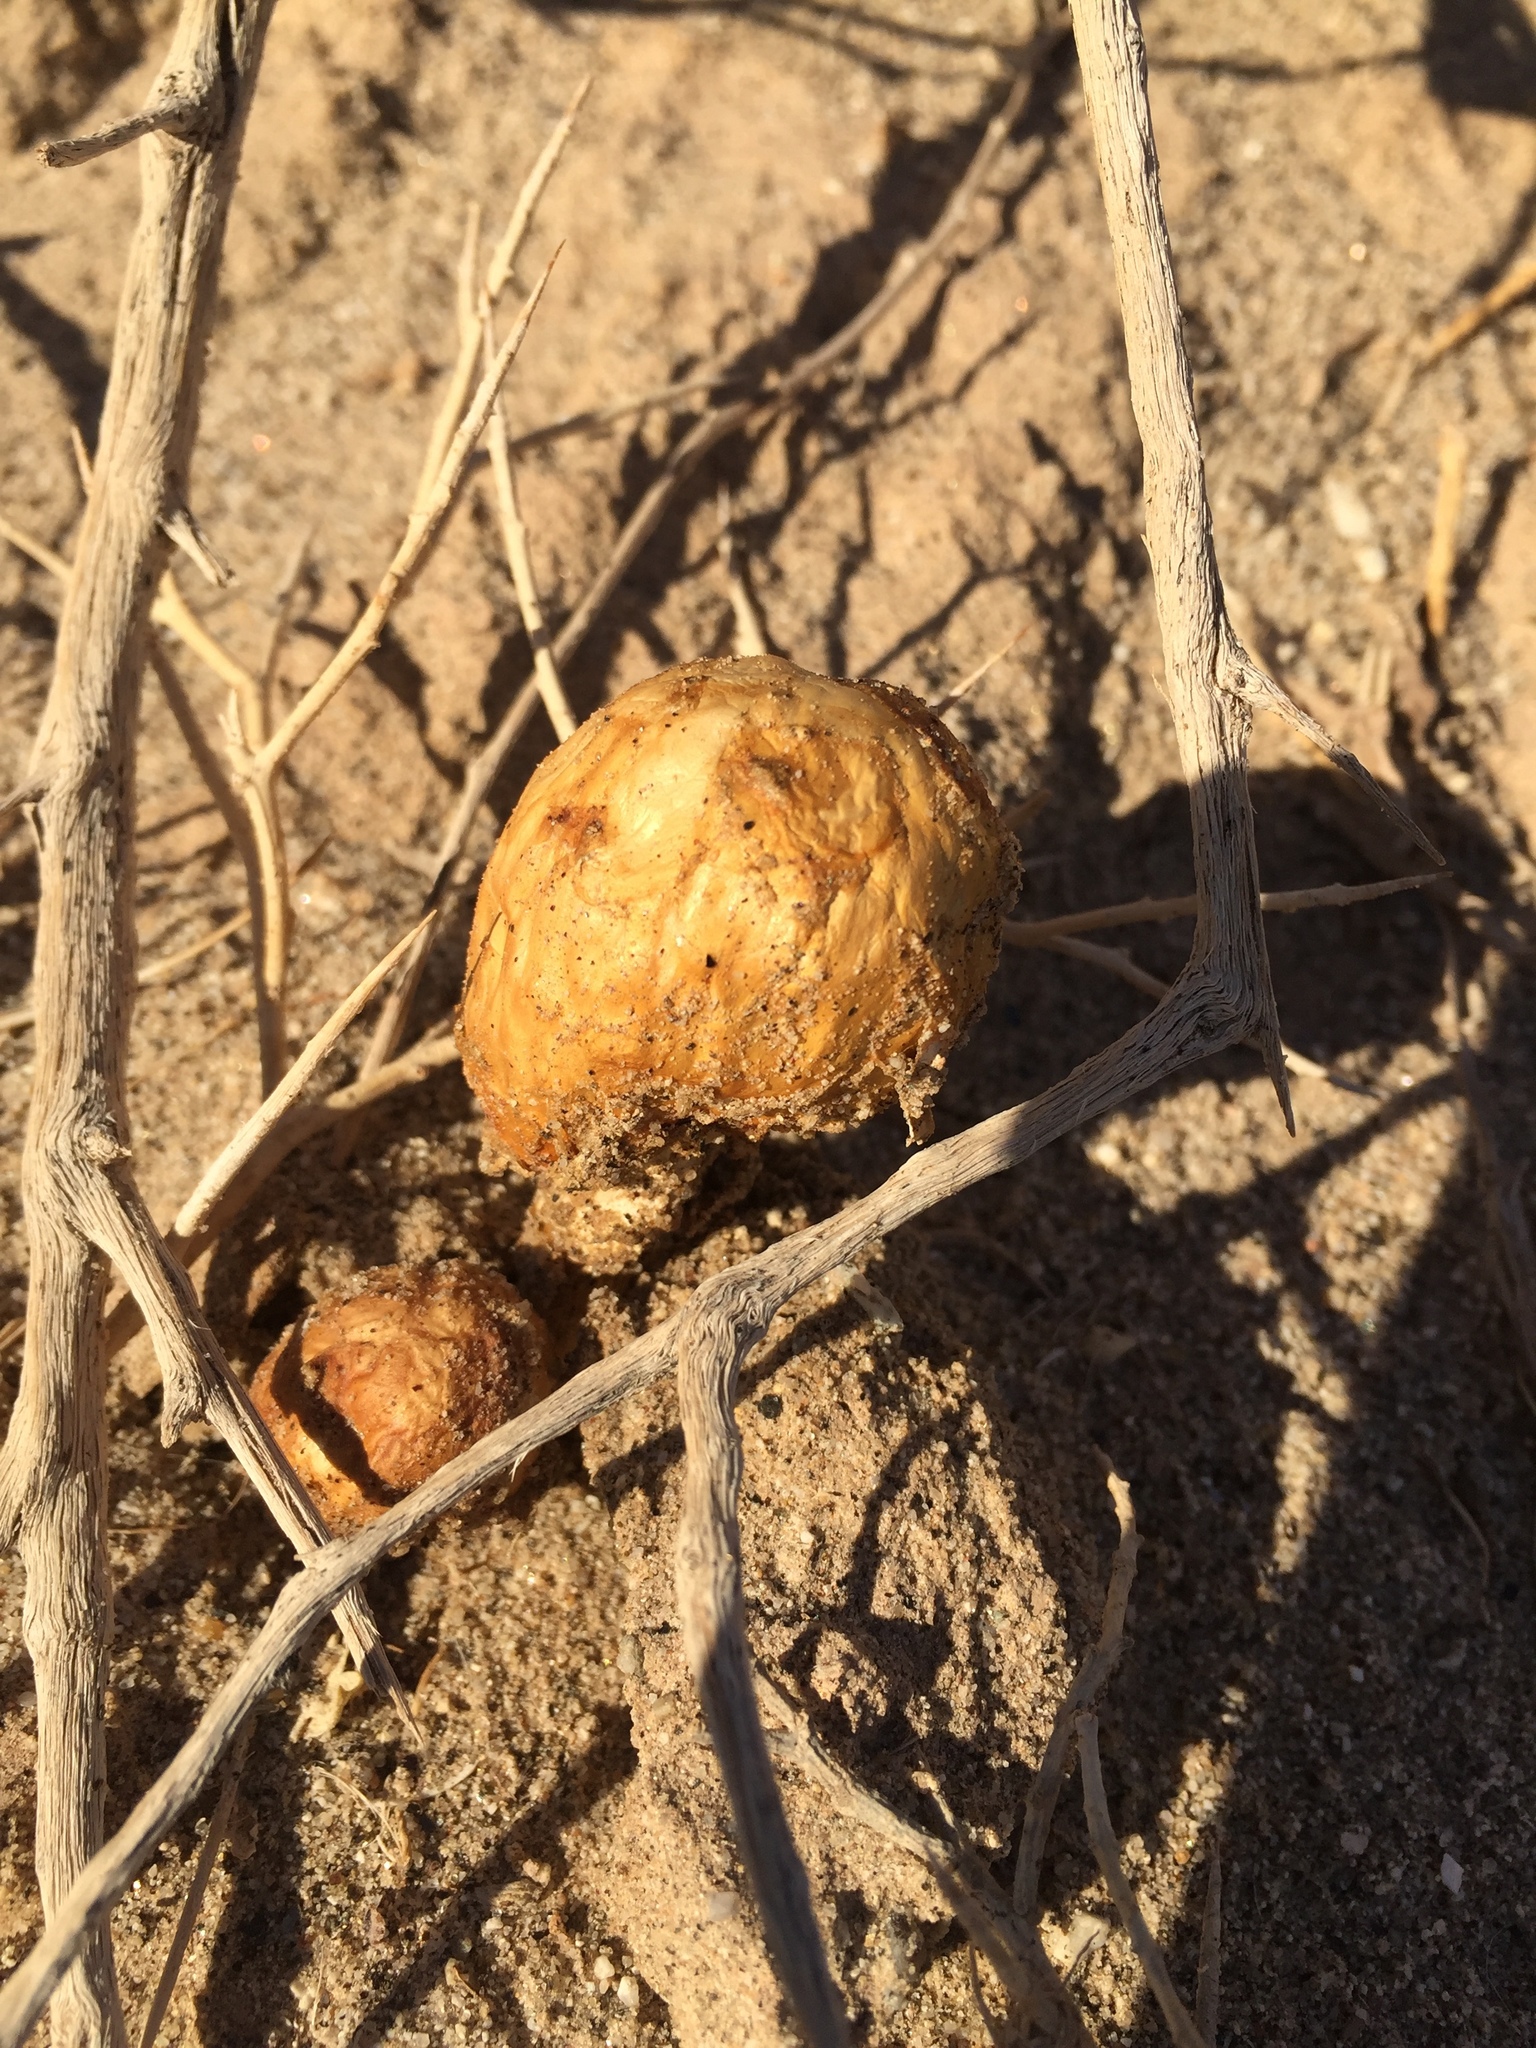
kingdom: Fungi
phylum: Basidiomycota
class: Agaricomycetes
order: Agaricales
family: Agaricaceae
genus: Podaxis
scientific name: Podaxis pistillaris
